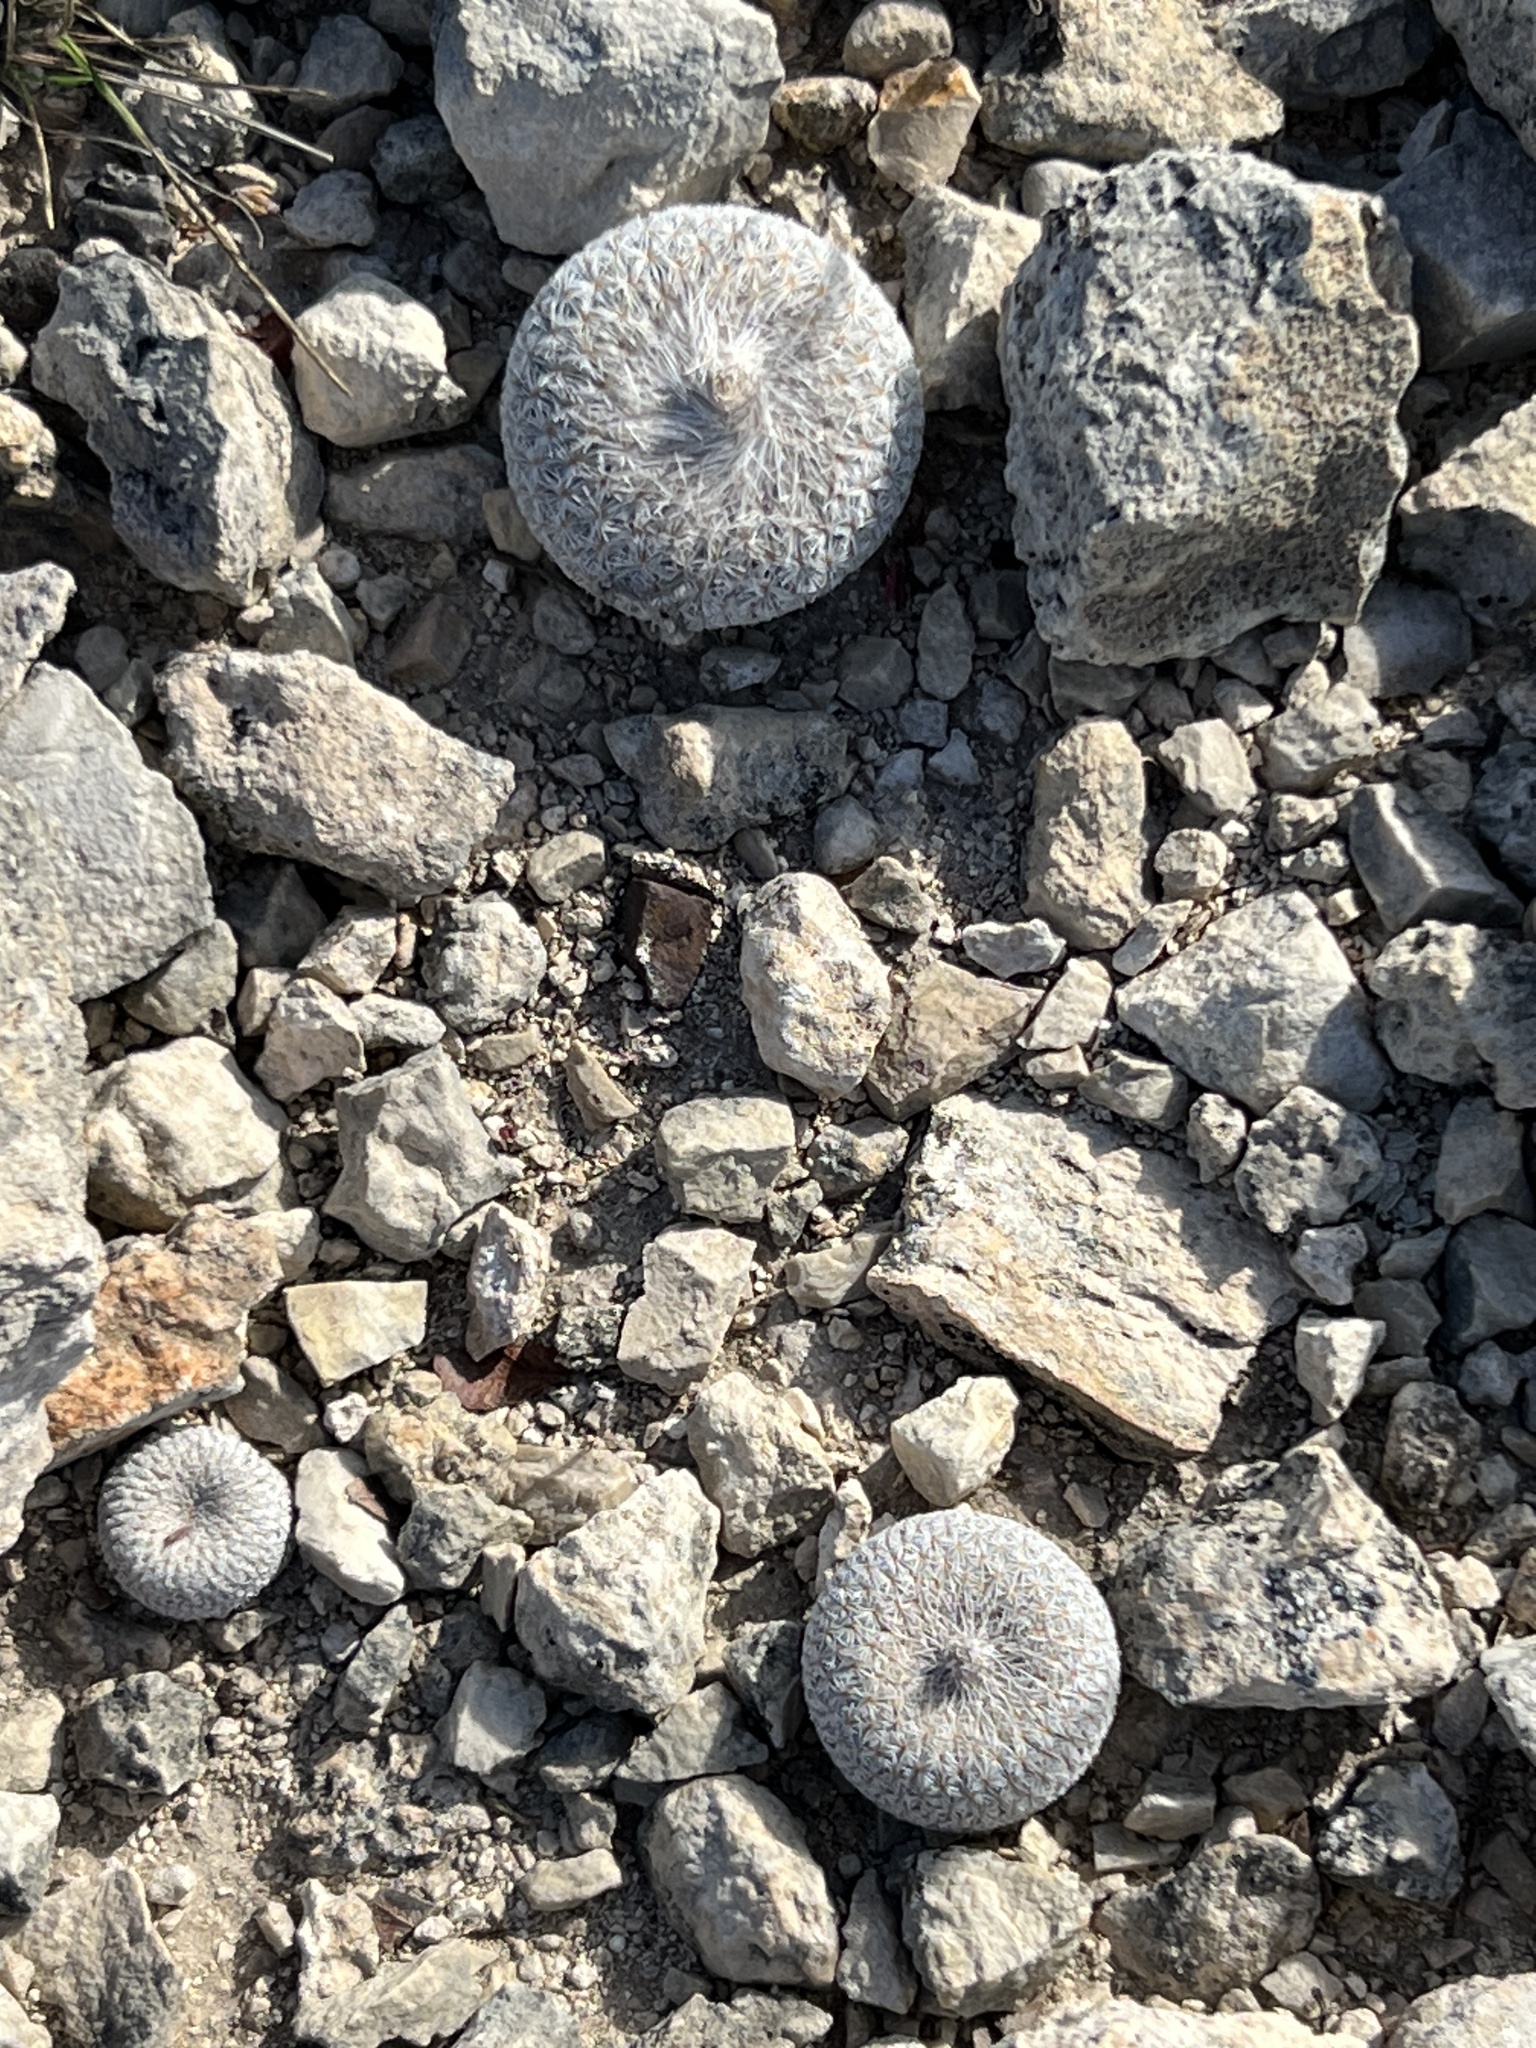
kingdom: Plantae
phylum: Tracheophyta
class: Magnoliopsida
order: Caryophyllales
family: Cactaceae
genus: Epithelantha
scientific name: Epithelantha micromeris
